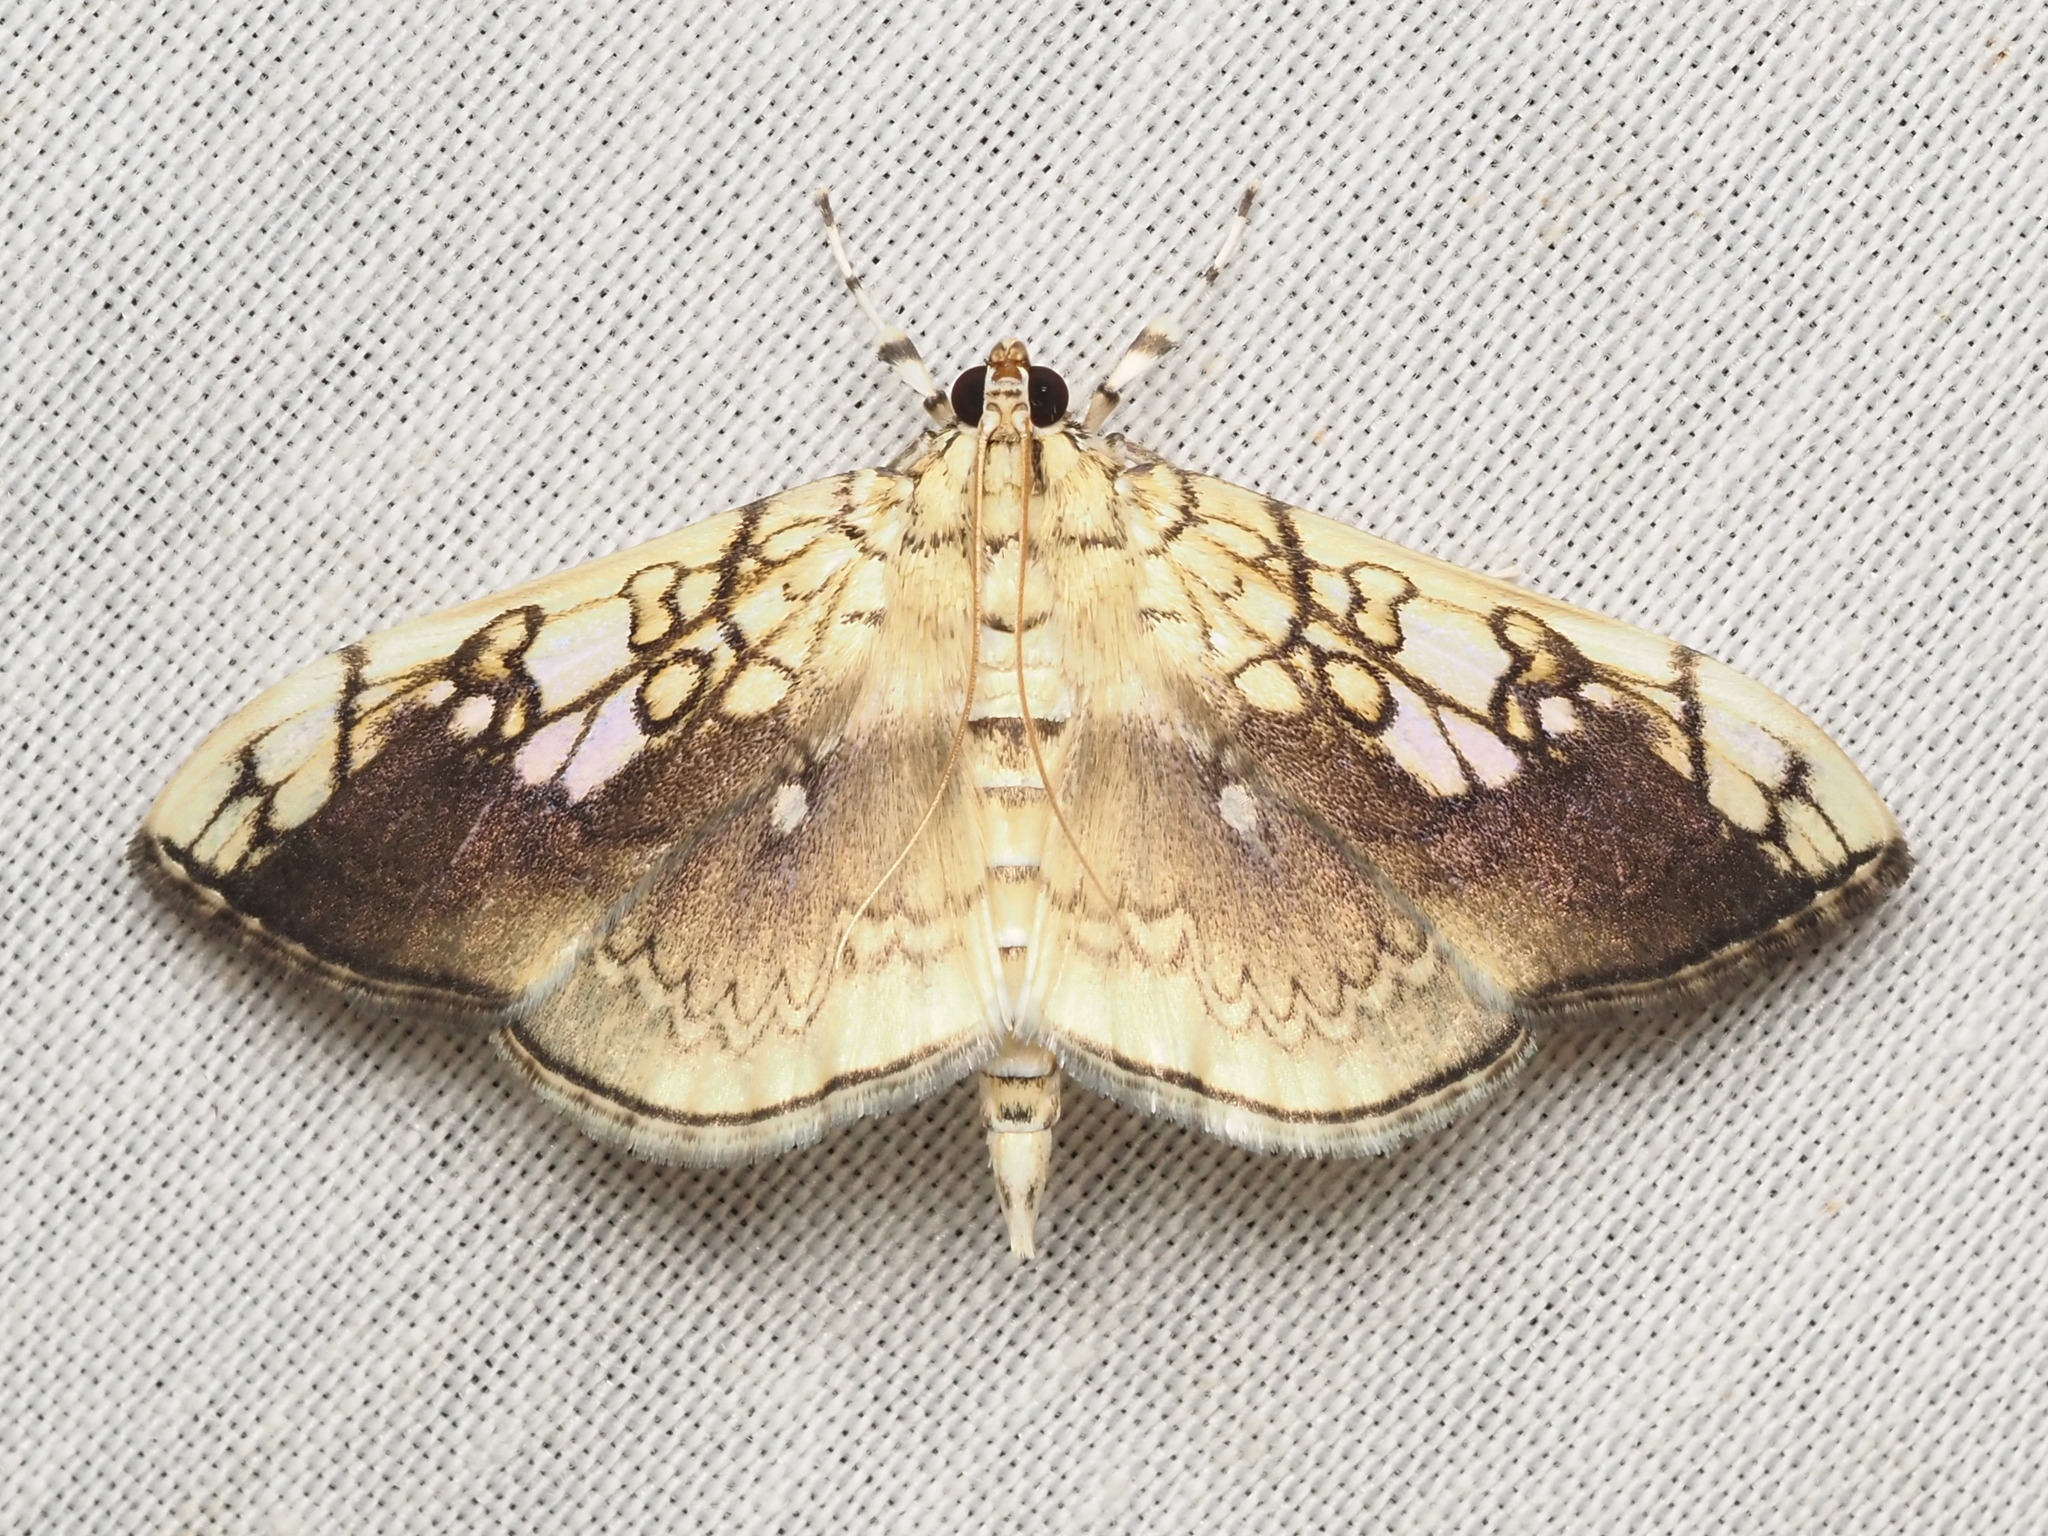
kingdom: Animalia
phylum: Arthropoda
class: Insecta
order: Lepidoptera
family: Crambidae
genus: Pantographa
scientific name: Pantographa limata
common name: Basswood leafroller moth
